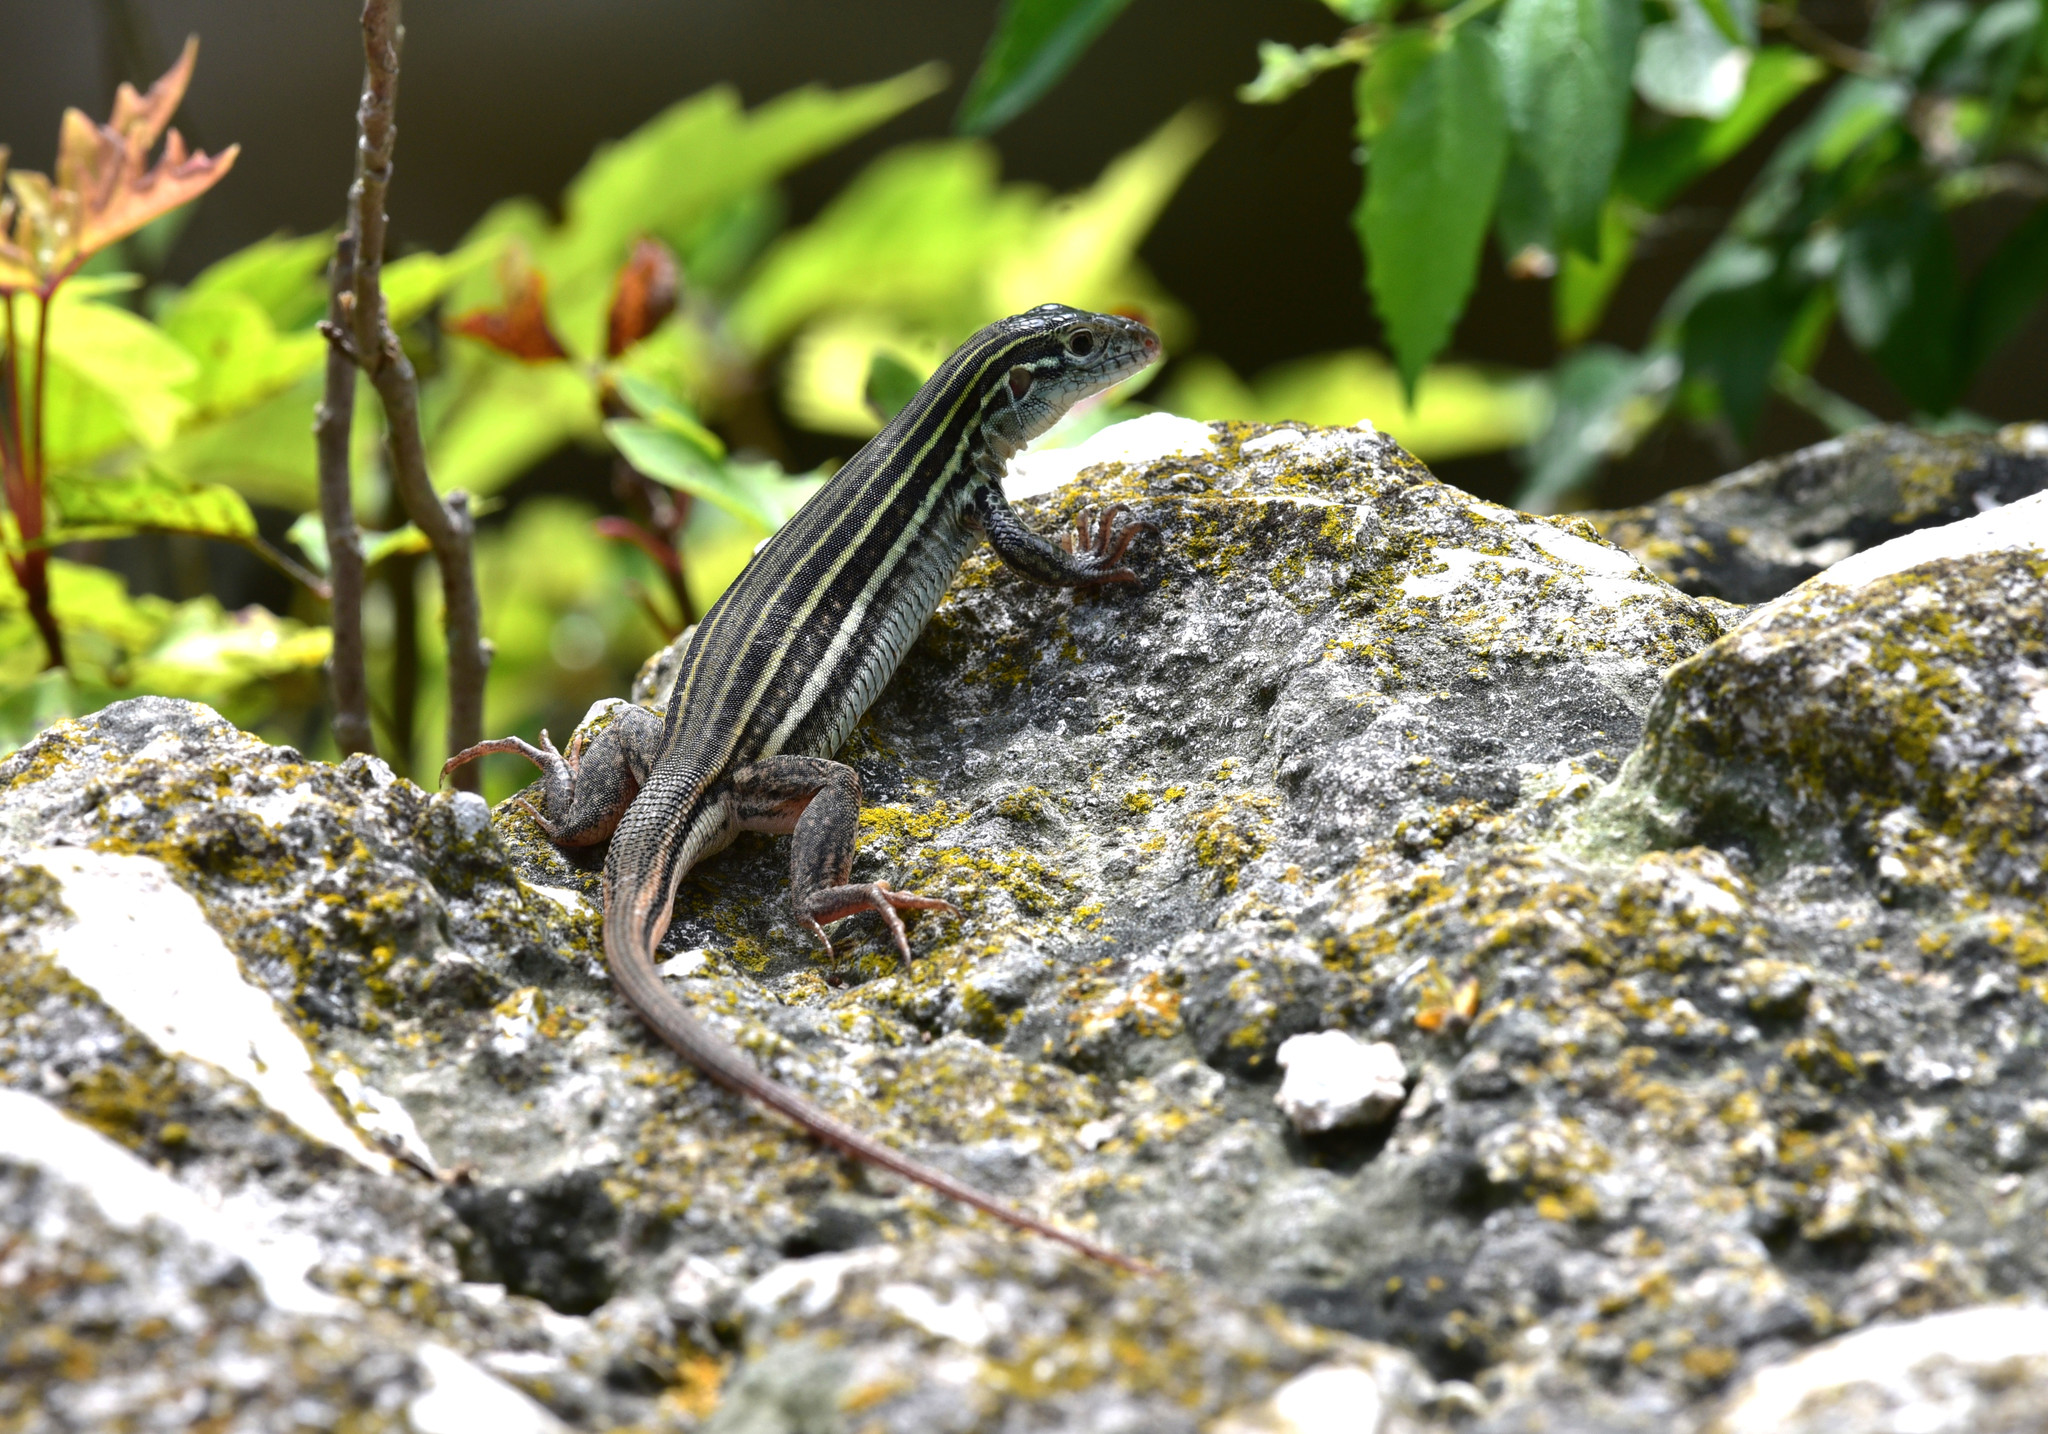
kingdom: Animalia
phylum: Chordata
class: Squamata
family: Teiidae
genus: Aspidoscelis
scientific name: Aspidoscelis gularis
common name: Eastern spotted whiptail
